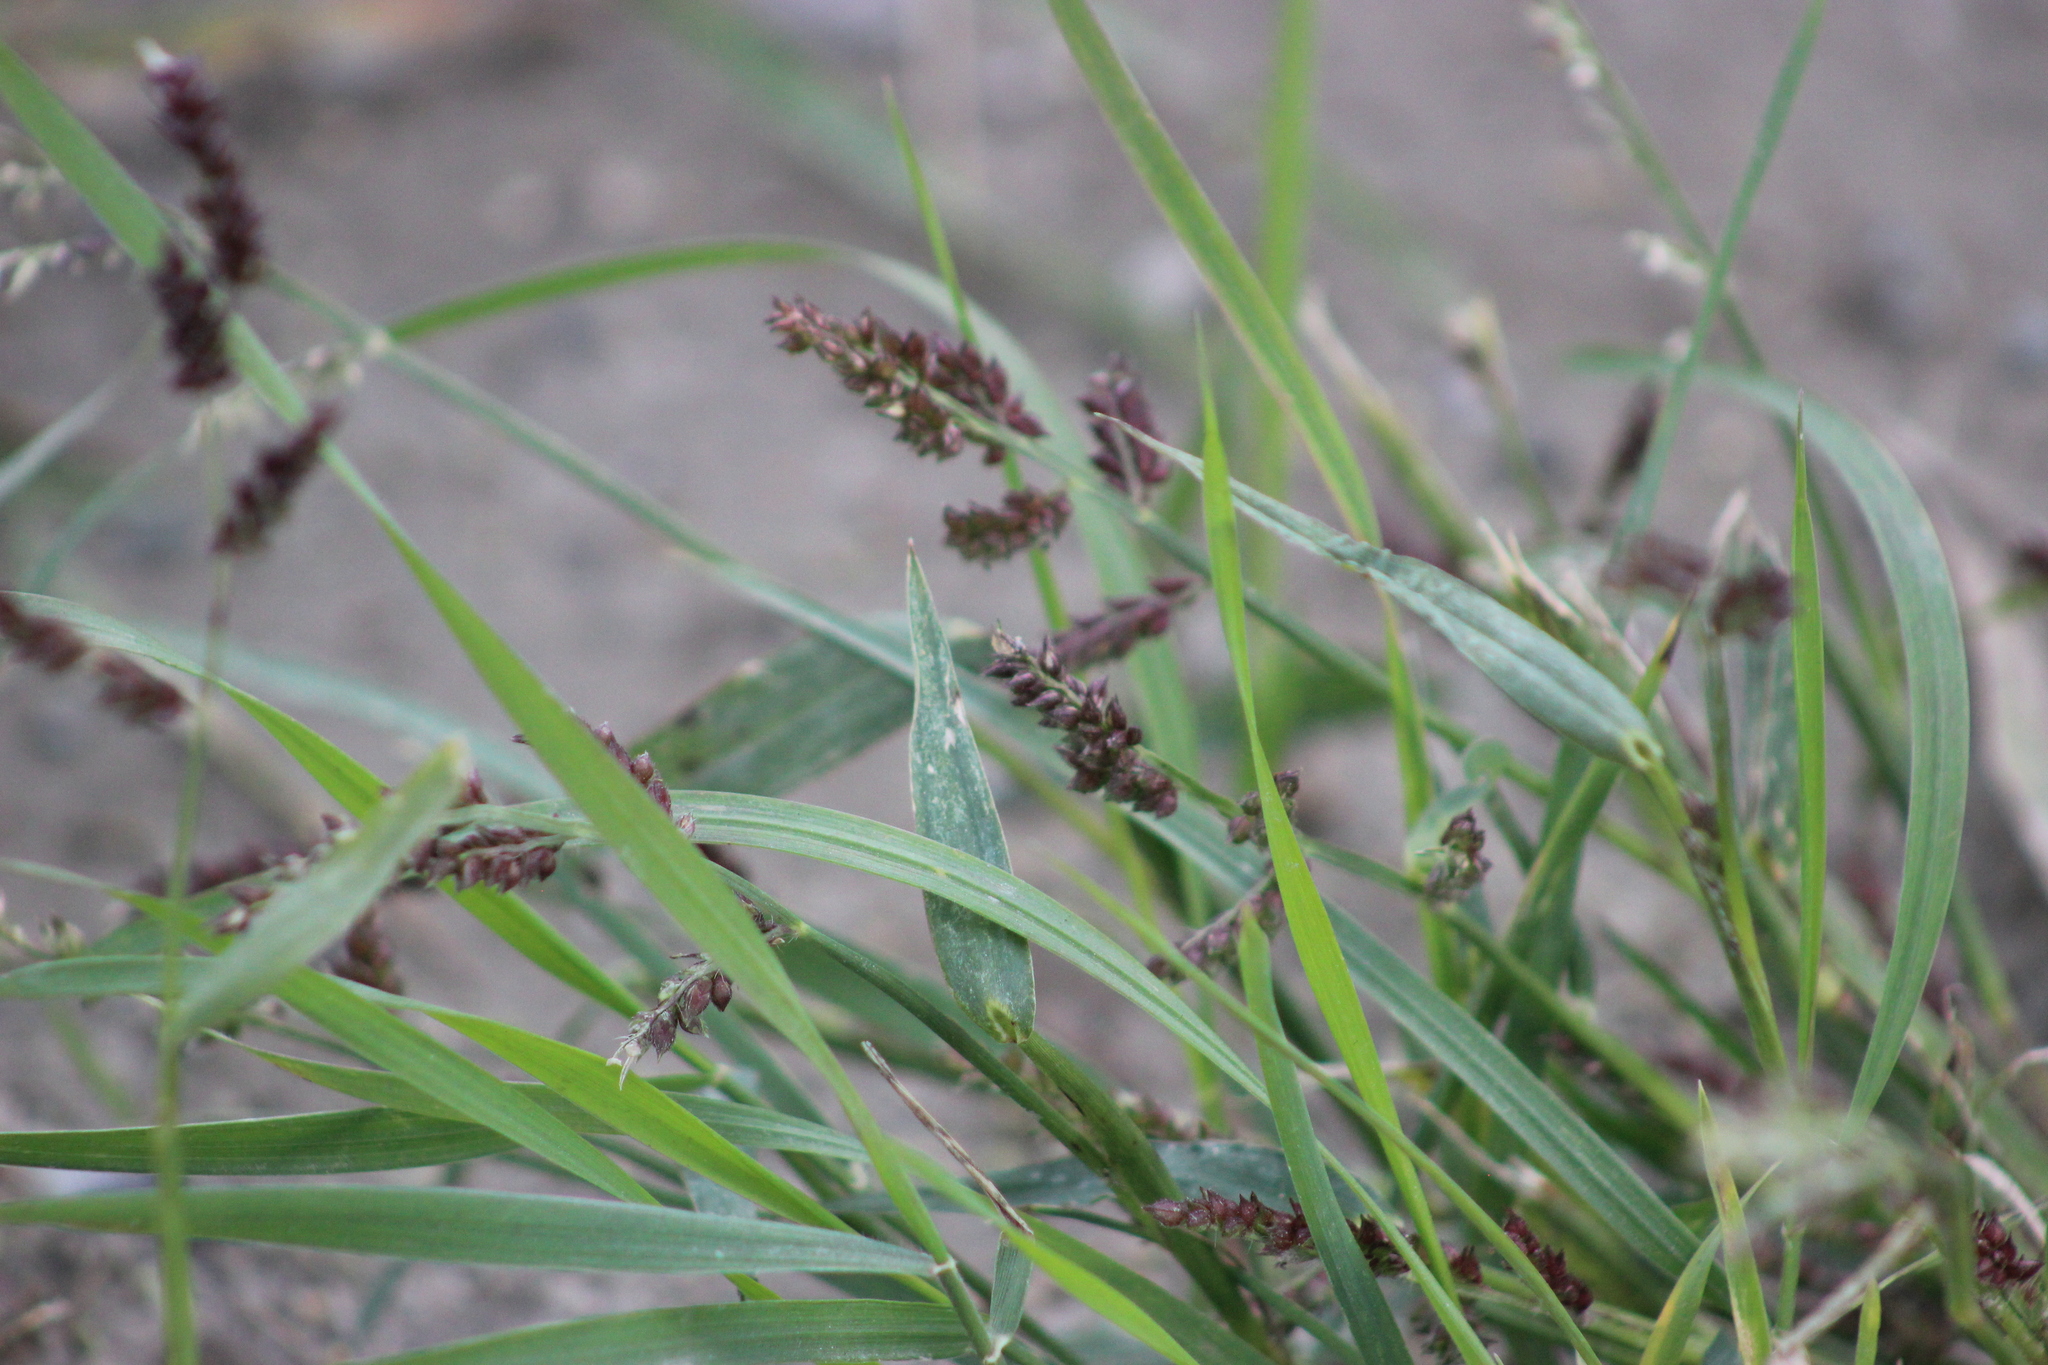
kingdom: Plantae
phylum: Tracheophyta
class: Liliopsida
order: Poales
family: Poaceae
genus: Echinochloa
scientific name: Echinochloa crus-galli
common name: Cockspur
